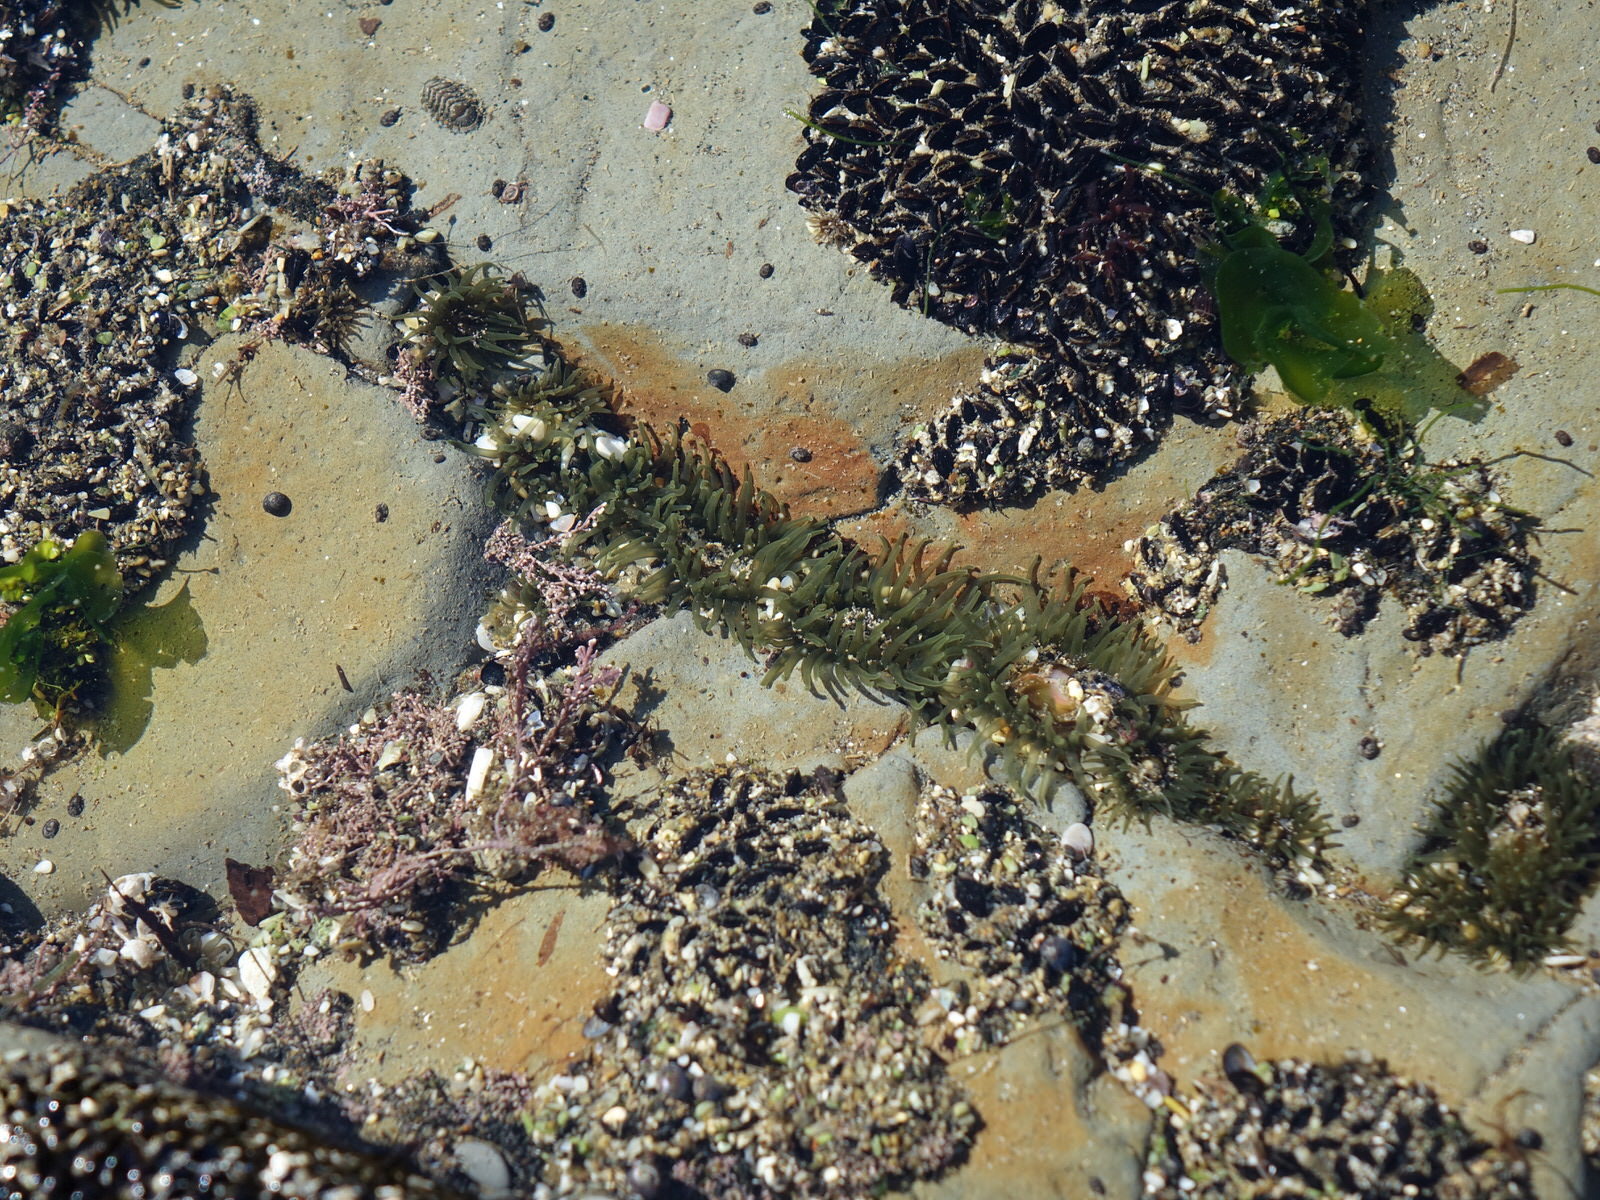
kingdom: Animalia
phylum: Cnidaria
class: Anthozoa
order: Actiniaria
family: Actiniidae
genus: Isactinia
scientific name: Isactinia olivacea
